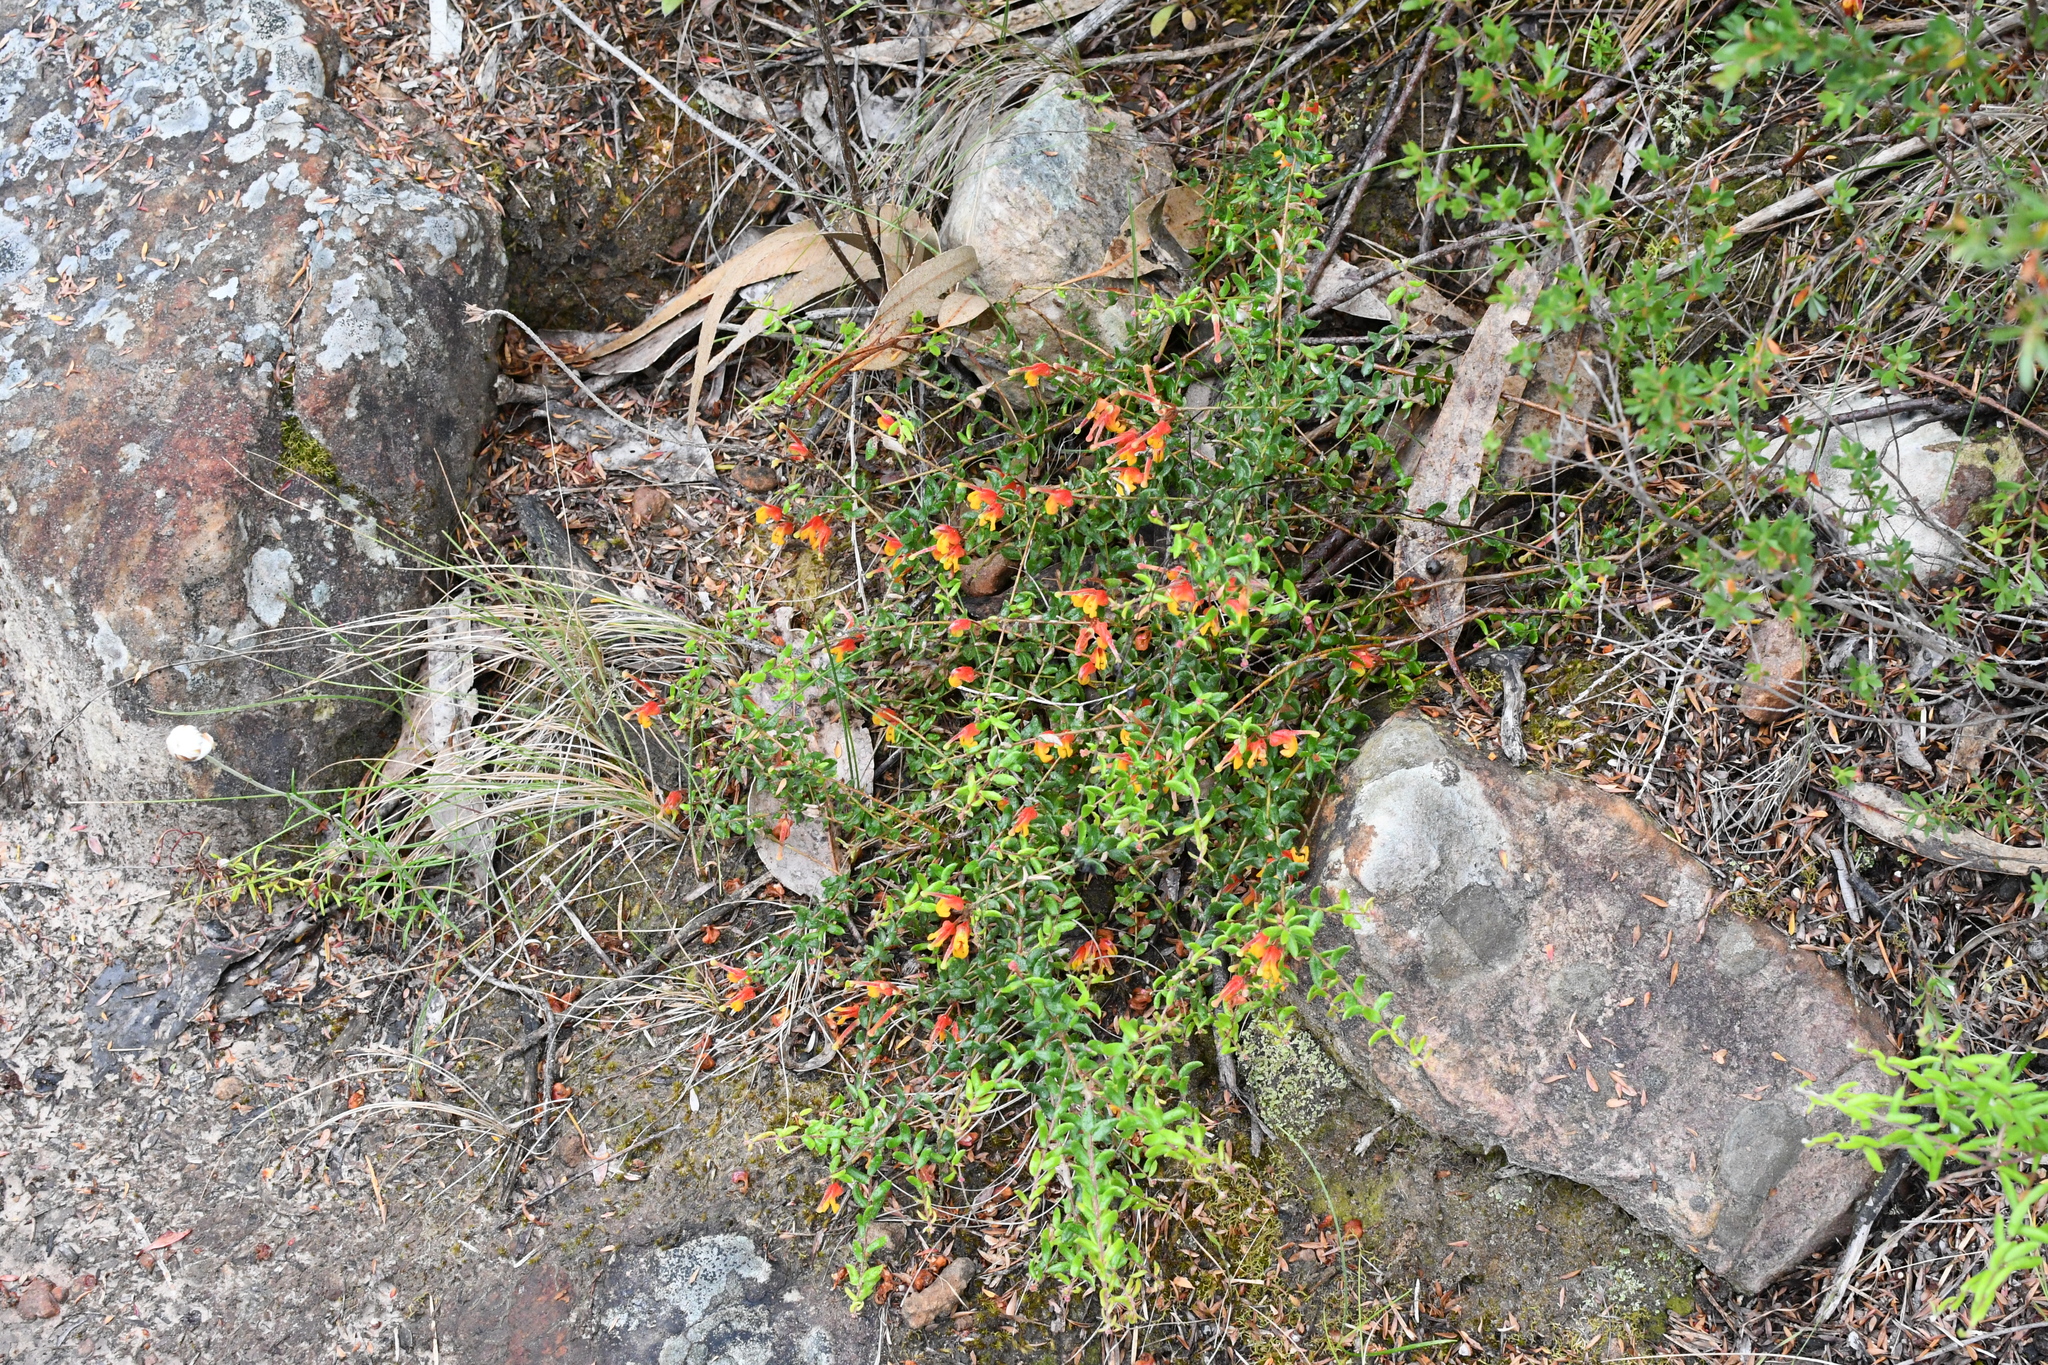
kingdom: Plantae
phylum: Tracheophyta
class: Magnoliopsida
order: Proteales
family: Proteaceae
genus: Grevillea
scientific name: Grevillea alpina
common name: Catclaws grevillea
